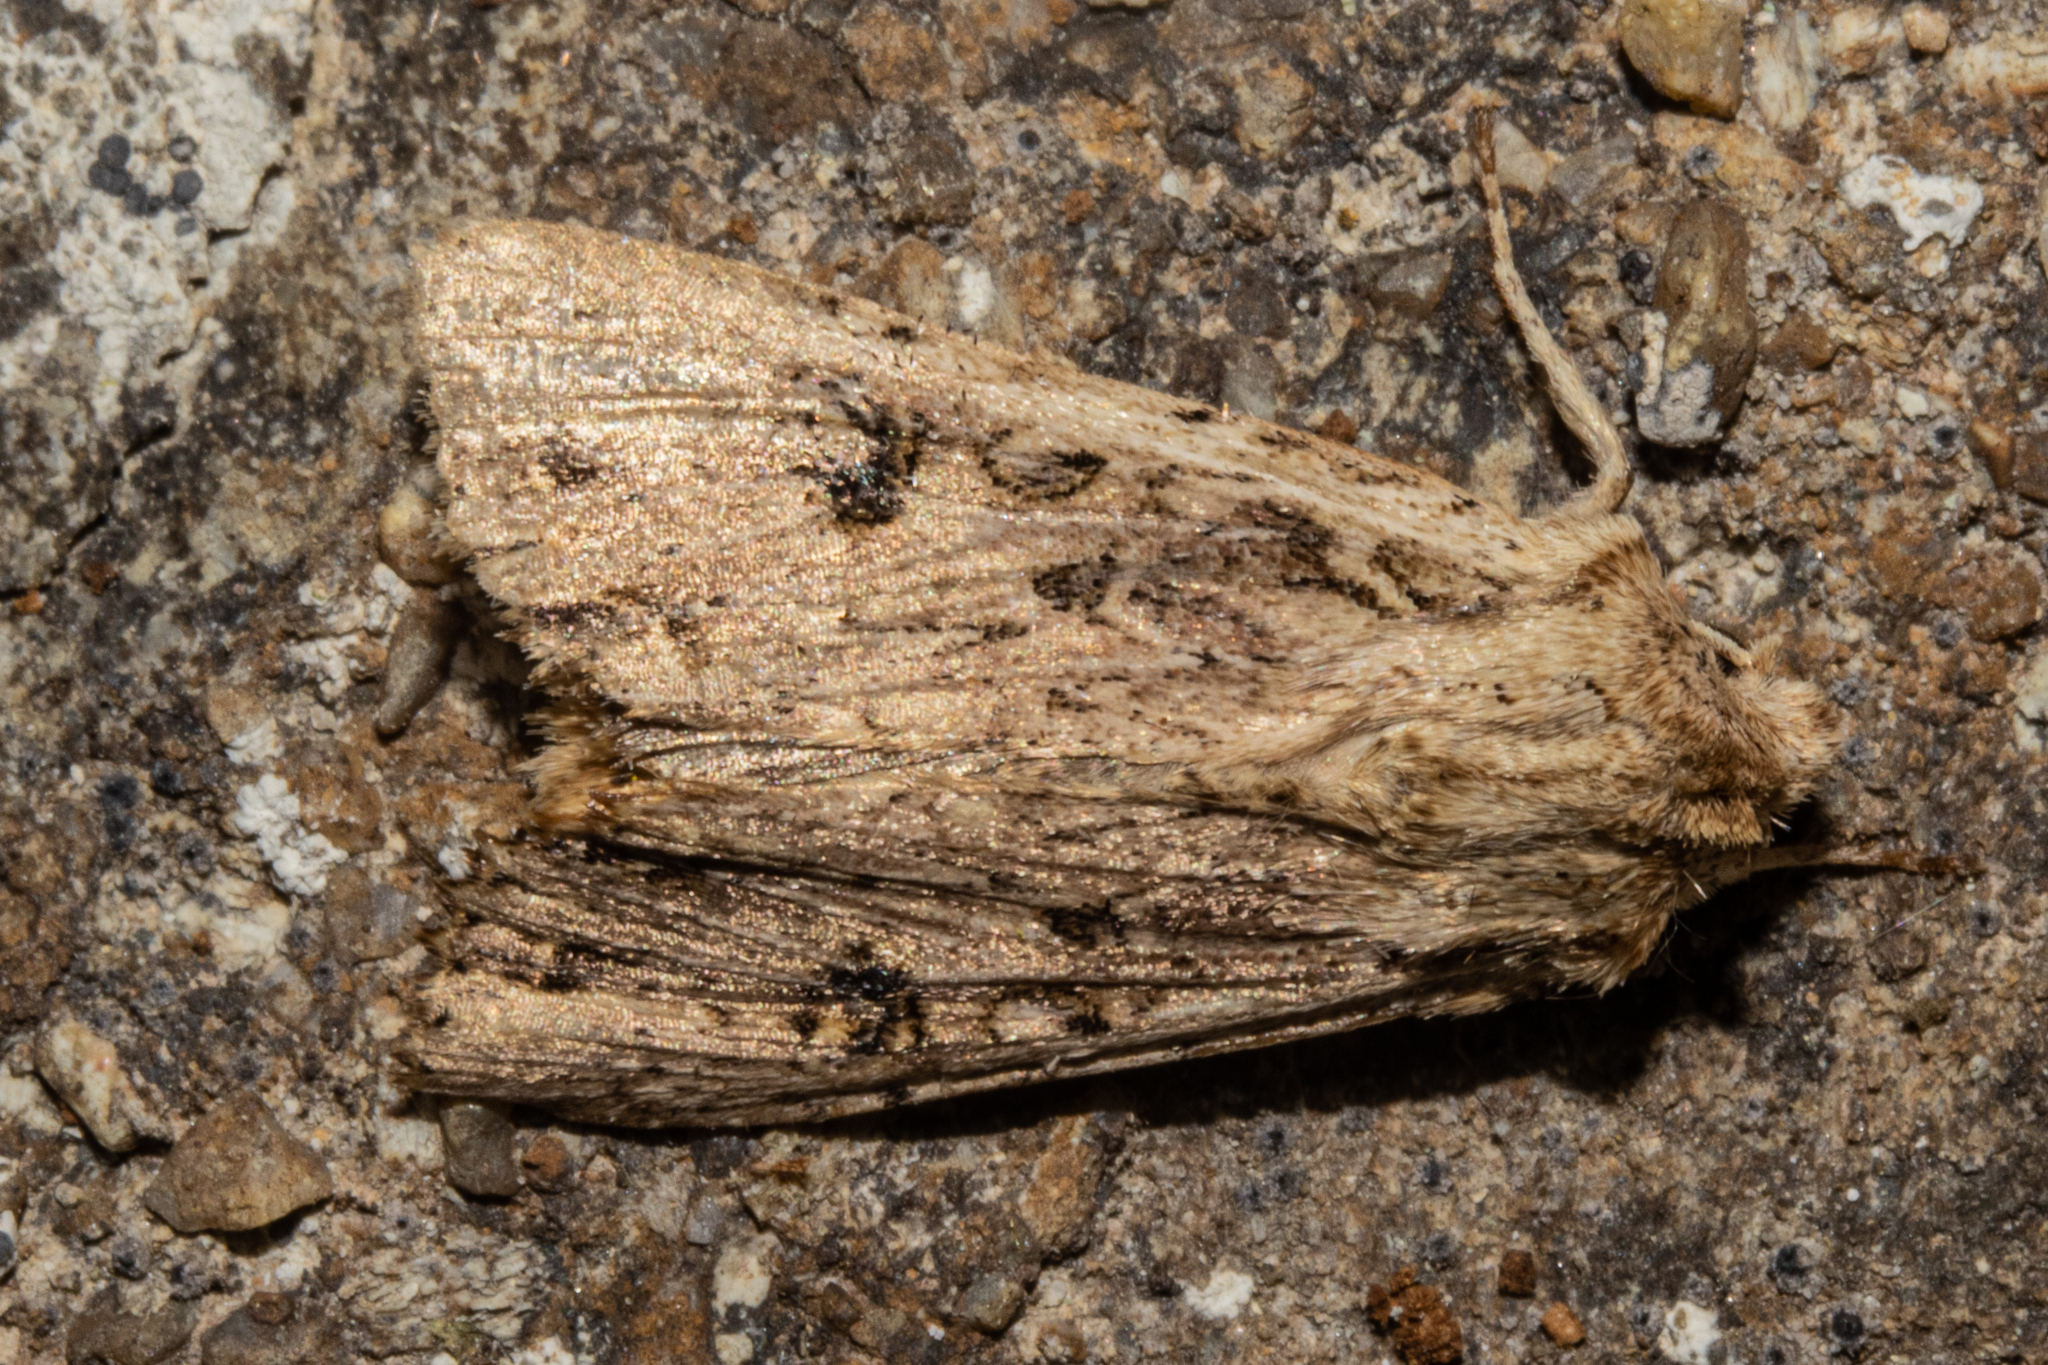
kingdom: Animalia
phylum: Arthropoda
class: Insecta
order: Lepidoptera
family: Noctuidae
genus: Ichneutica
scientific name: Ichneutica lignana
